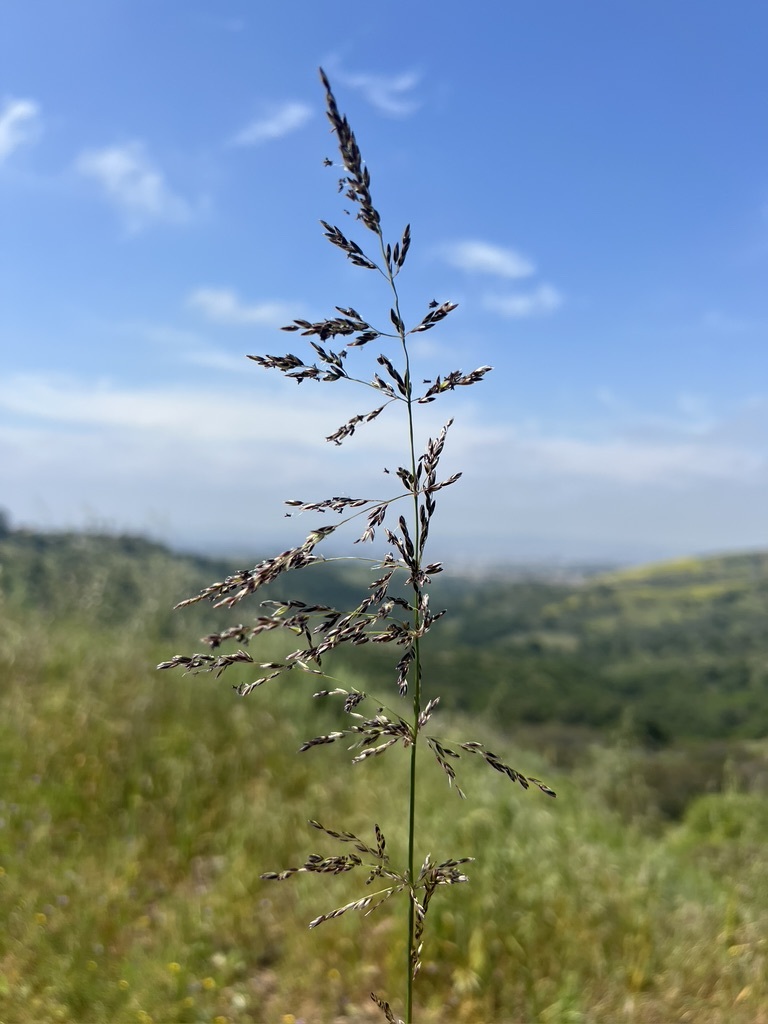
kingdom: Plantae
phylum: Tracheophyta
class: Liliopsida
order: Poales
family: Poaceae
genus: Melica
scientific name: Melica imperfecta
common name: California melic
